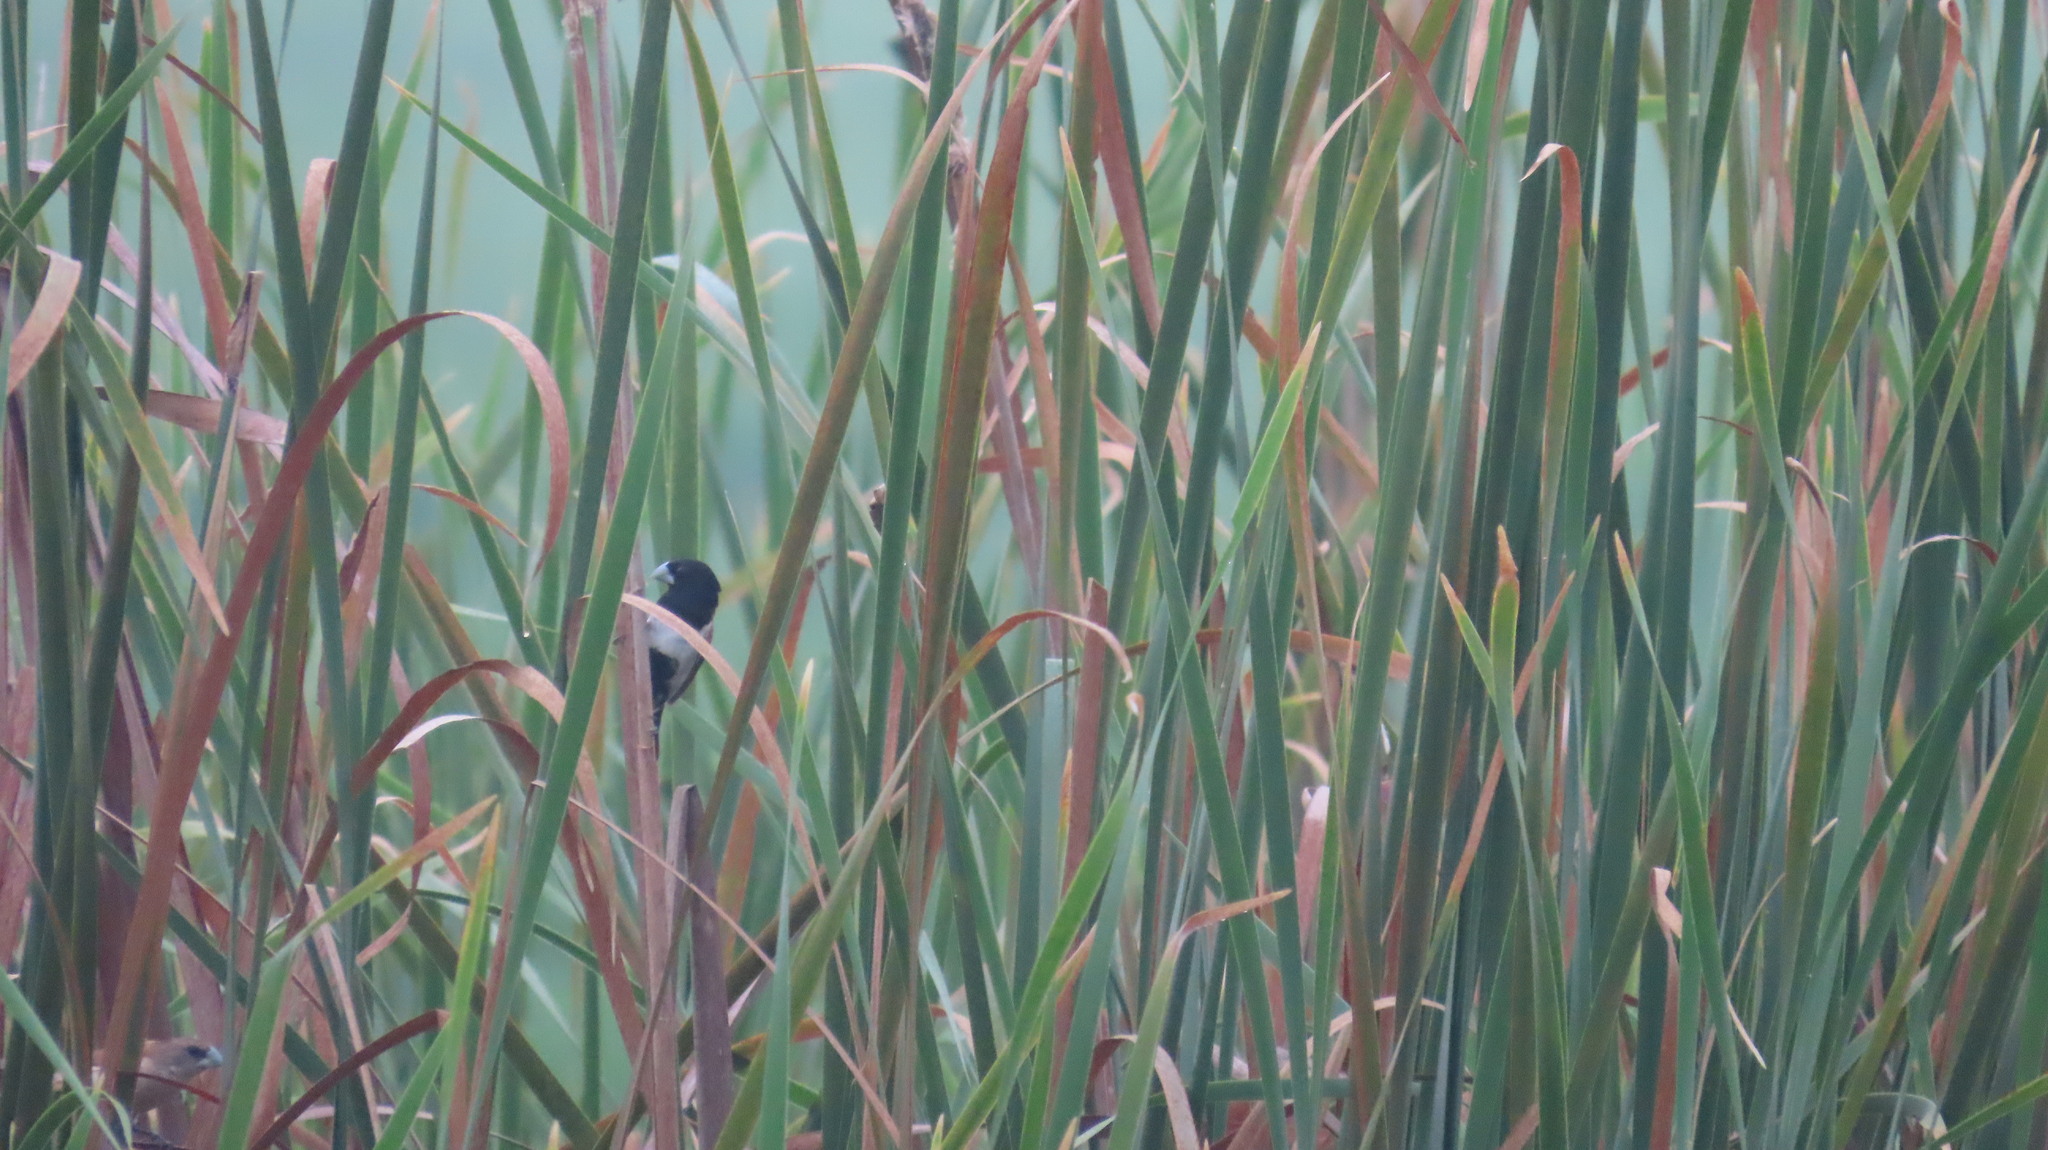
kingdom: Animalia
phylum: Chordata
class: Aves
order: Passeriformes
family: Estrildidae
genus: Lonchura
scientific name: Lonchura malacca
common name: Tricolored munia
